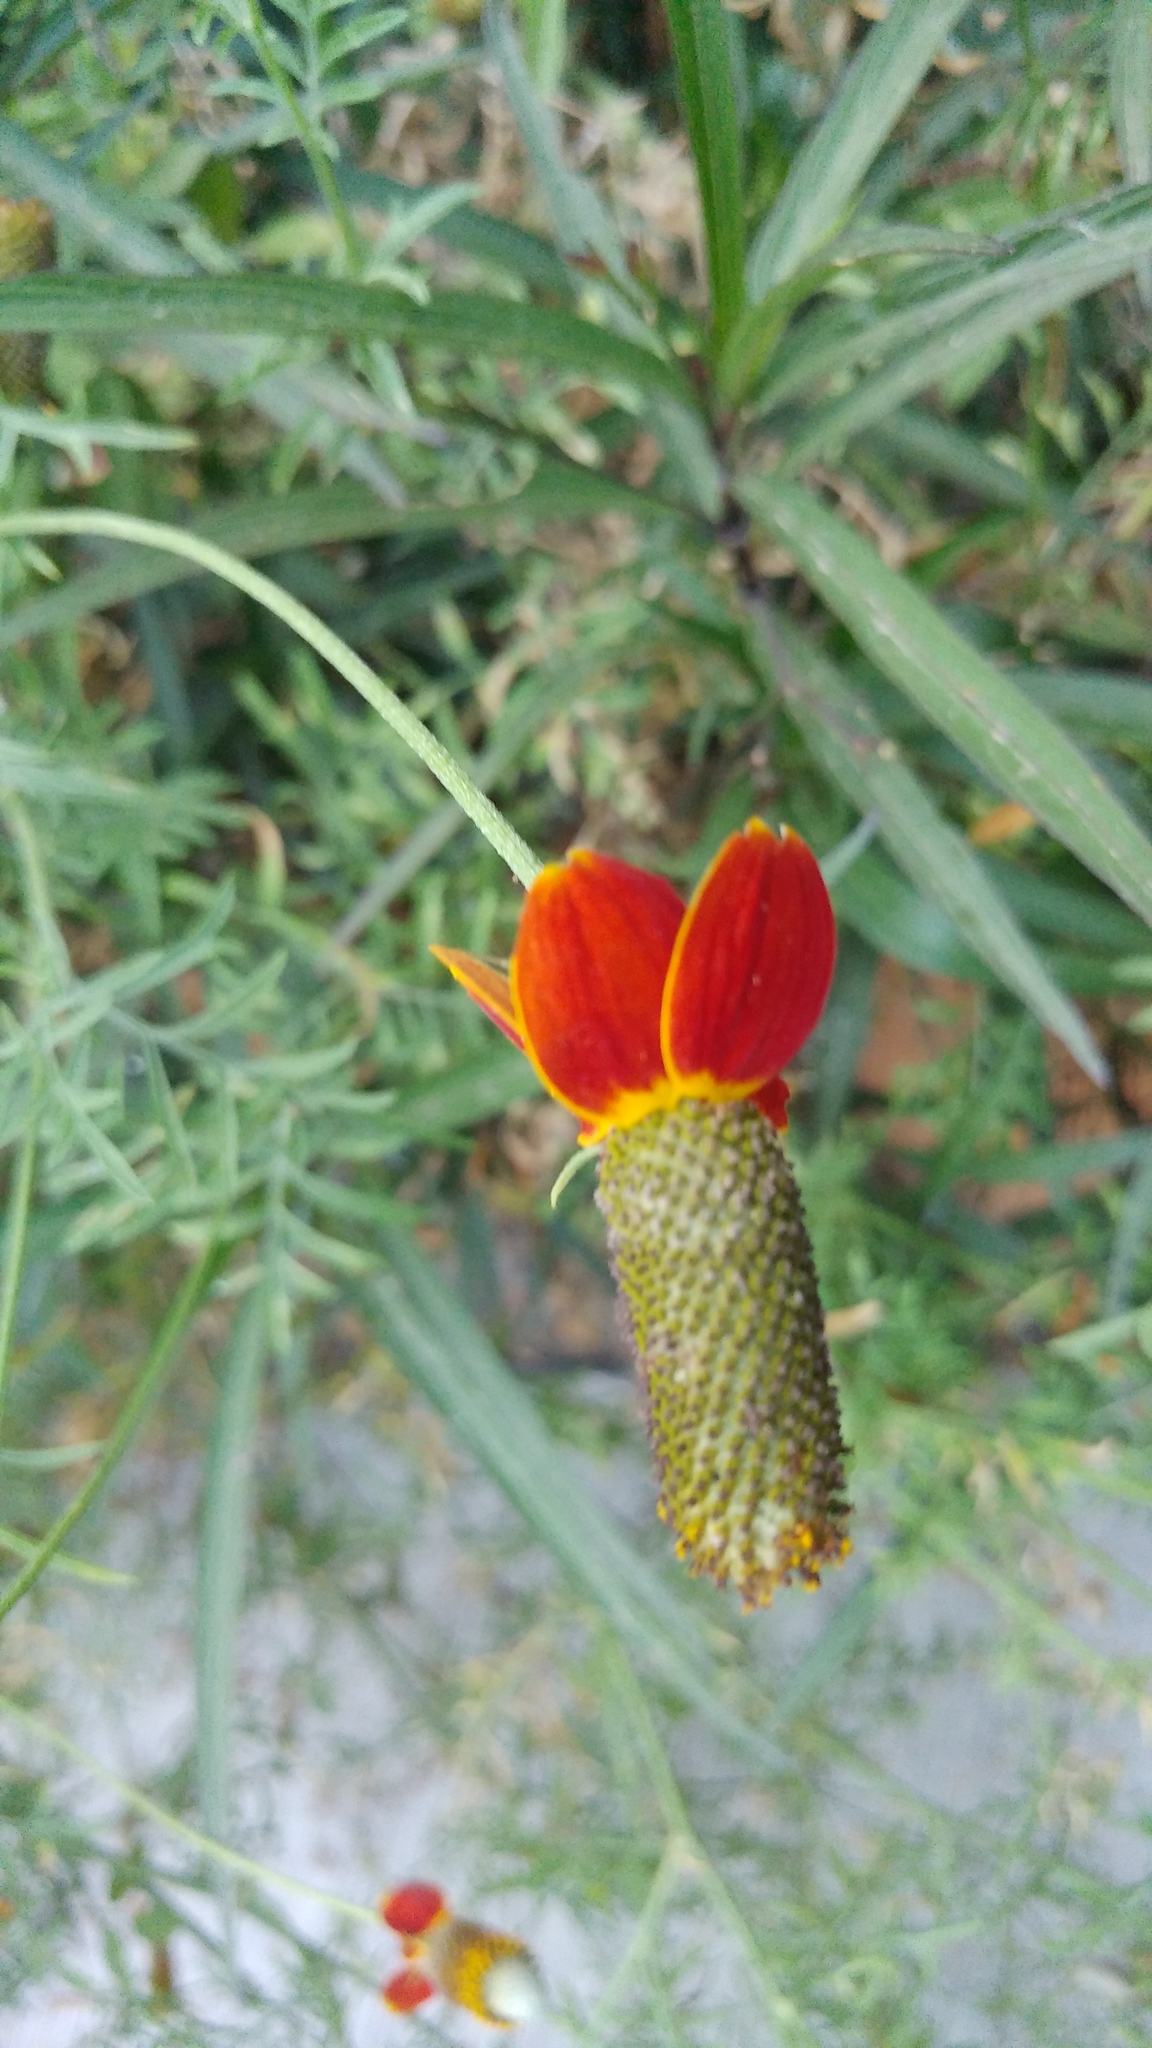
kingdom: Plantae
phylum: Tracheophyta
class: Magnoliopsida
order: Asterales
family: Asteraceae
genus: Ratibida
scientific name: Ratibida columnifera
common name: Prairie coneflower
